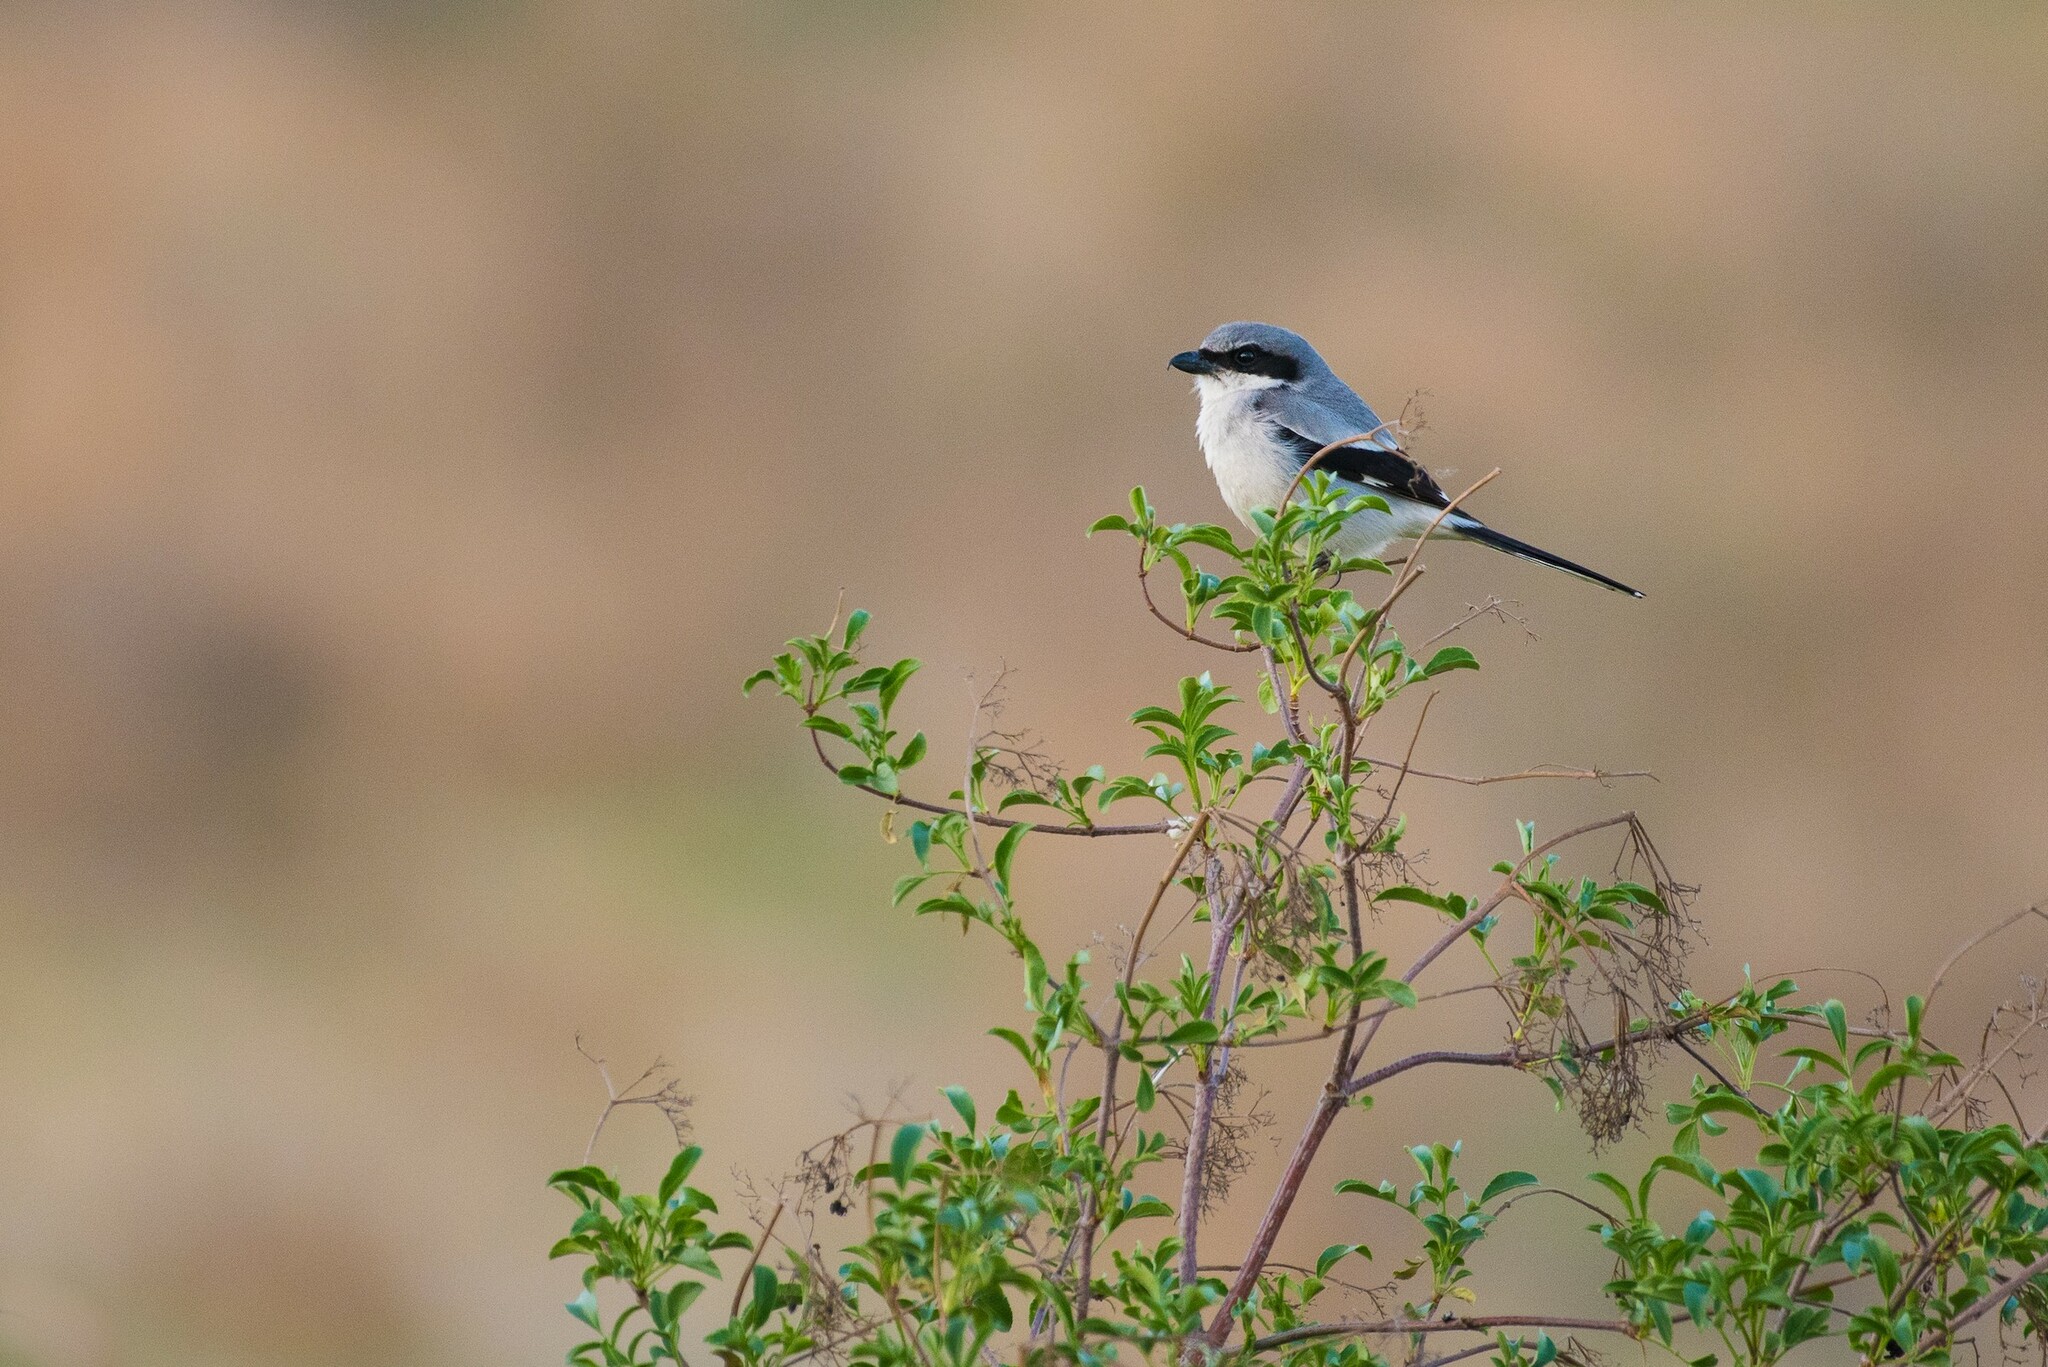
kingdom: Animalia
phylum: Chordata
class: Aves
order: Passeriformes
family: Laniidae
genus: Lanius
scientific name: Lanius ludovicianus
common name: Loggerhead shrike
